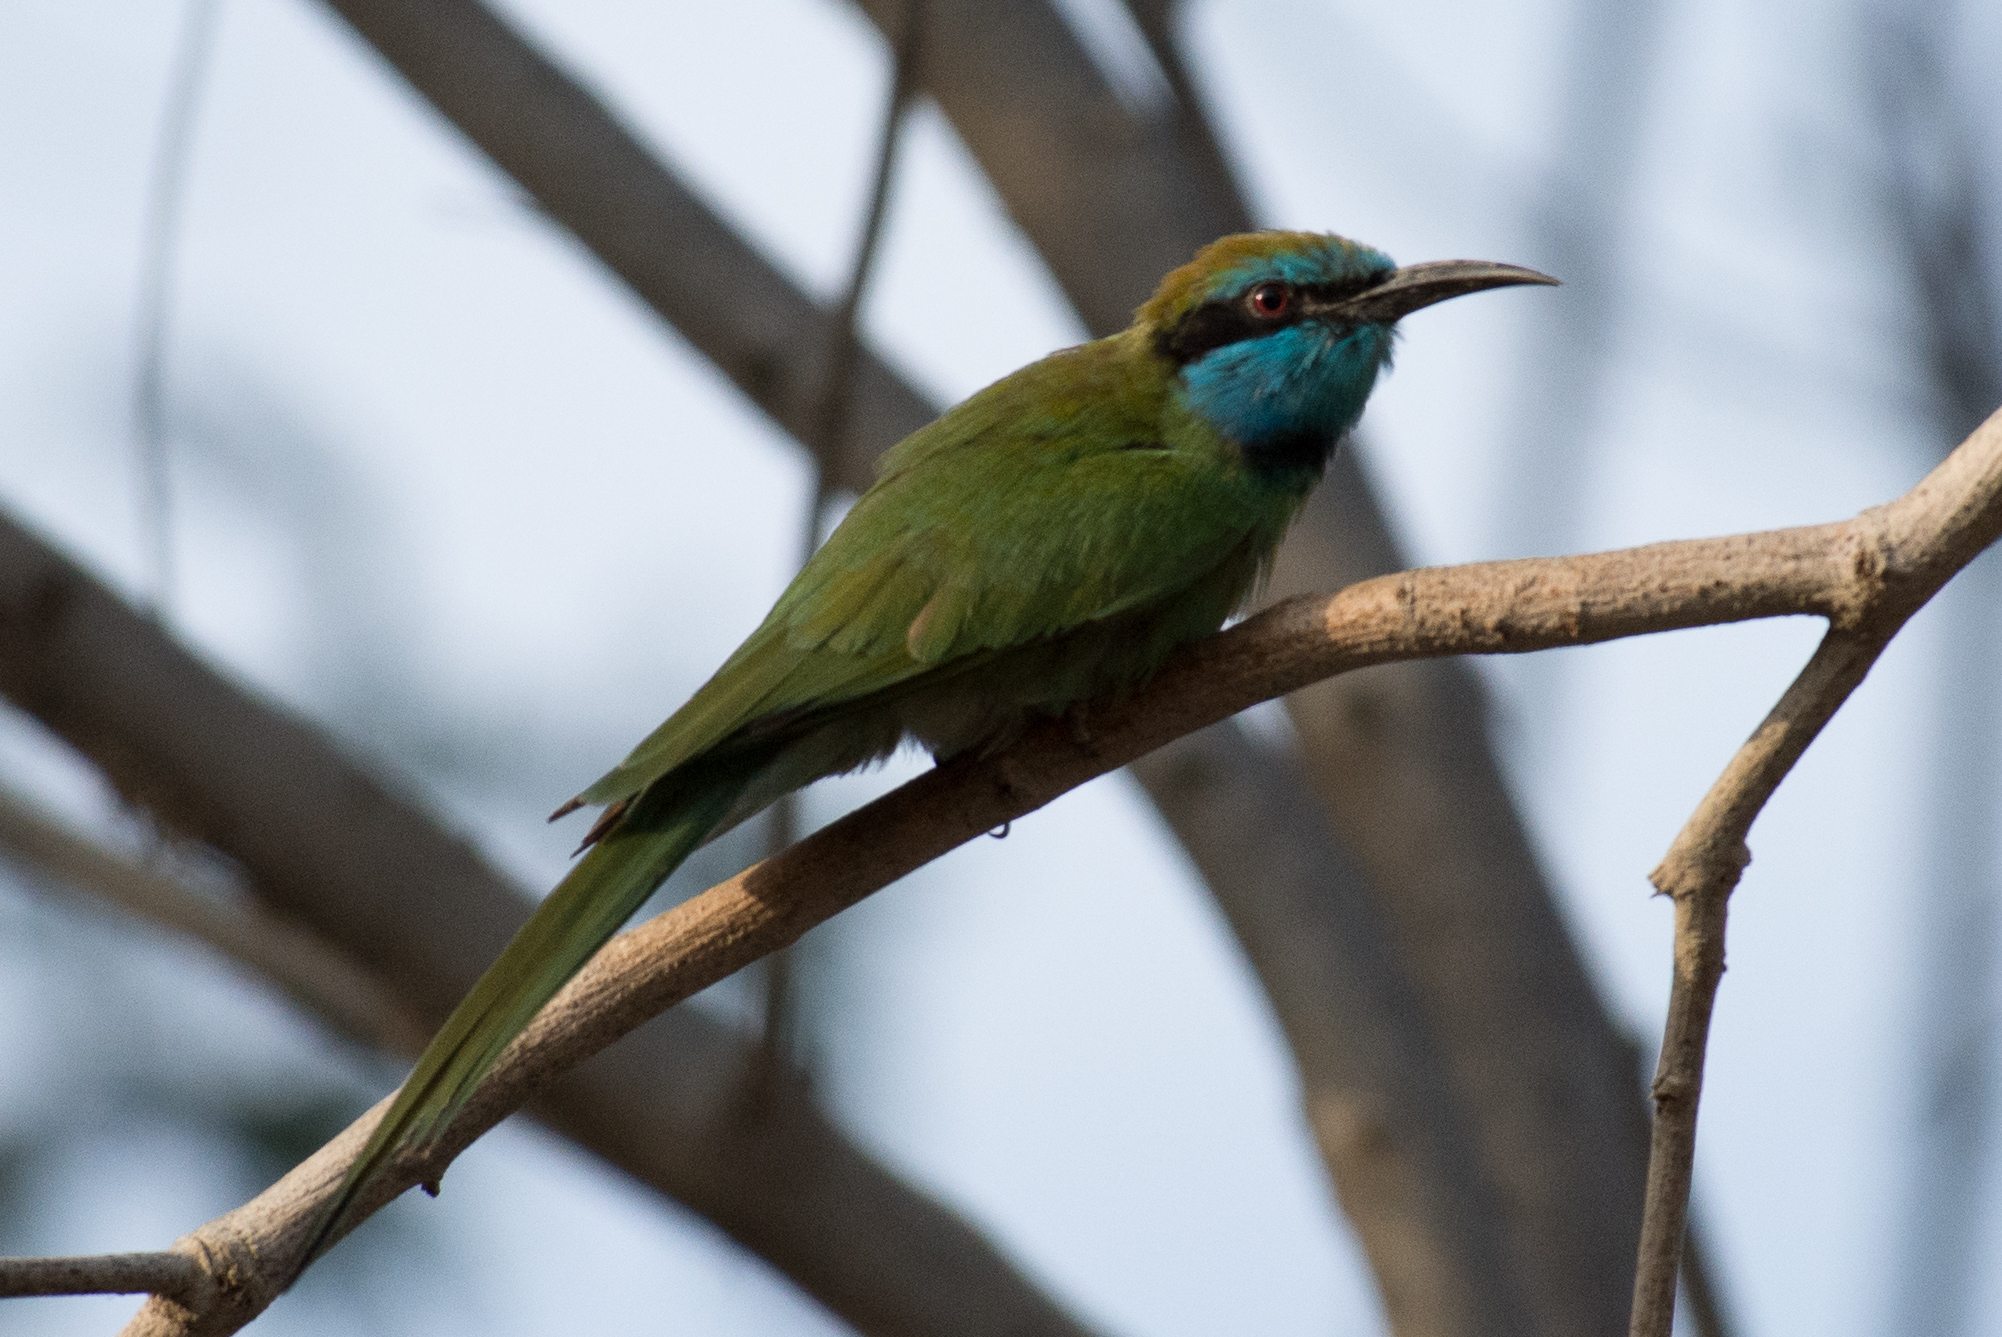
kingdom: Animalia
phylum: Chordata
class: Aves
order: Coraciiformes
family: Meropidae
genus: Merops
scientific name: Merops cyanophrys
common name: Arabian green bee-eater
